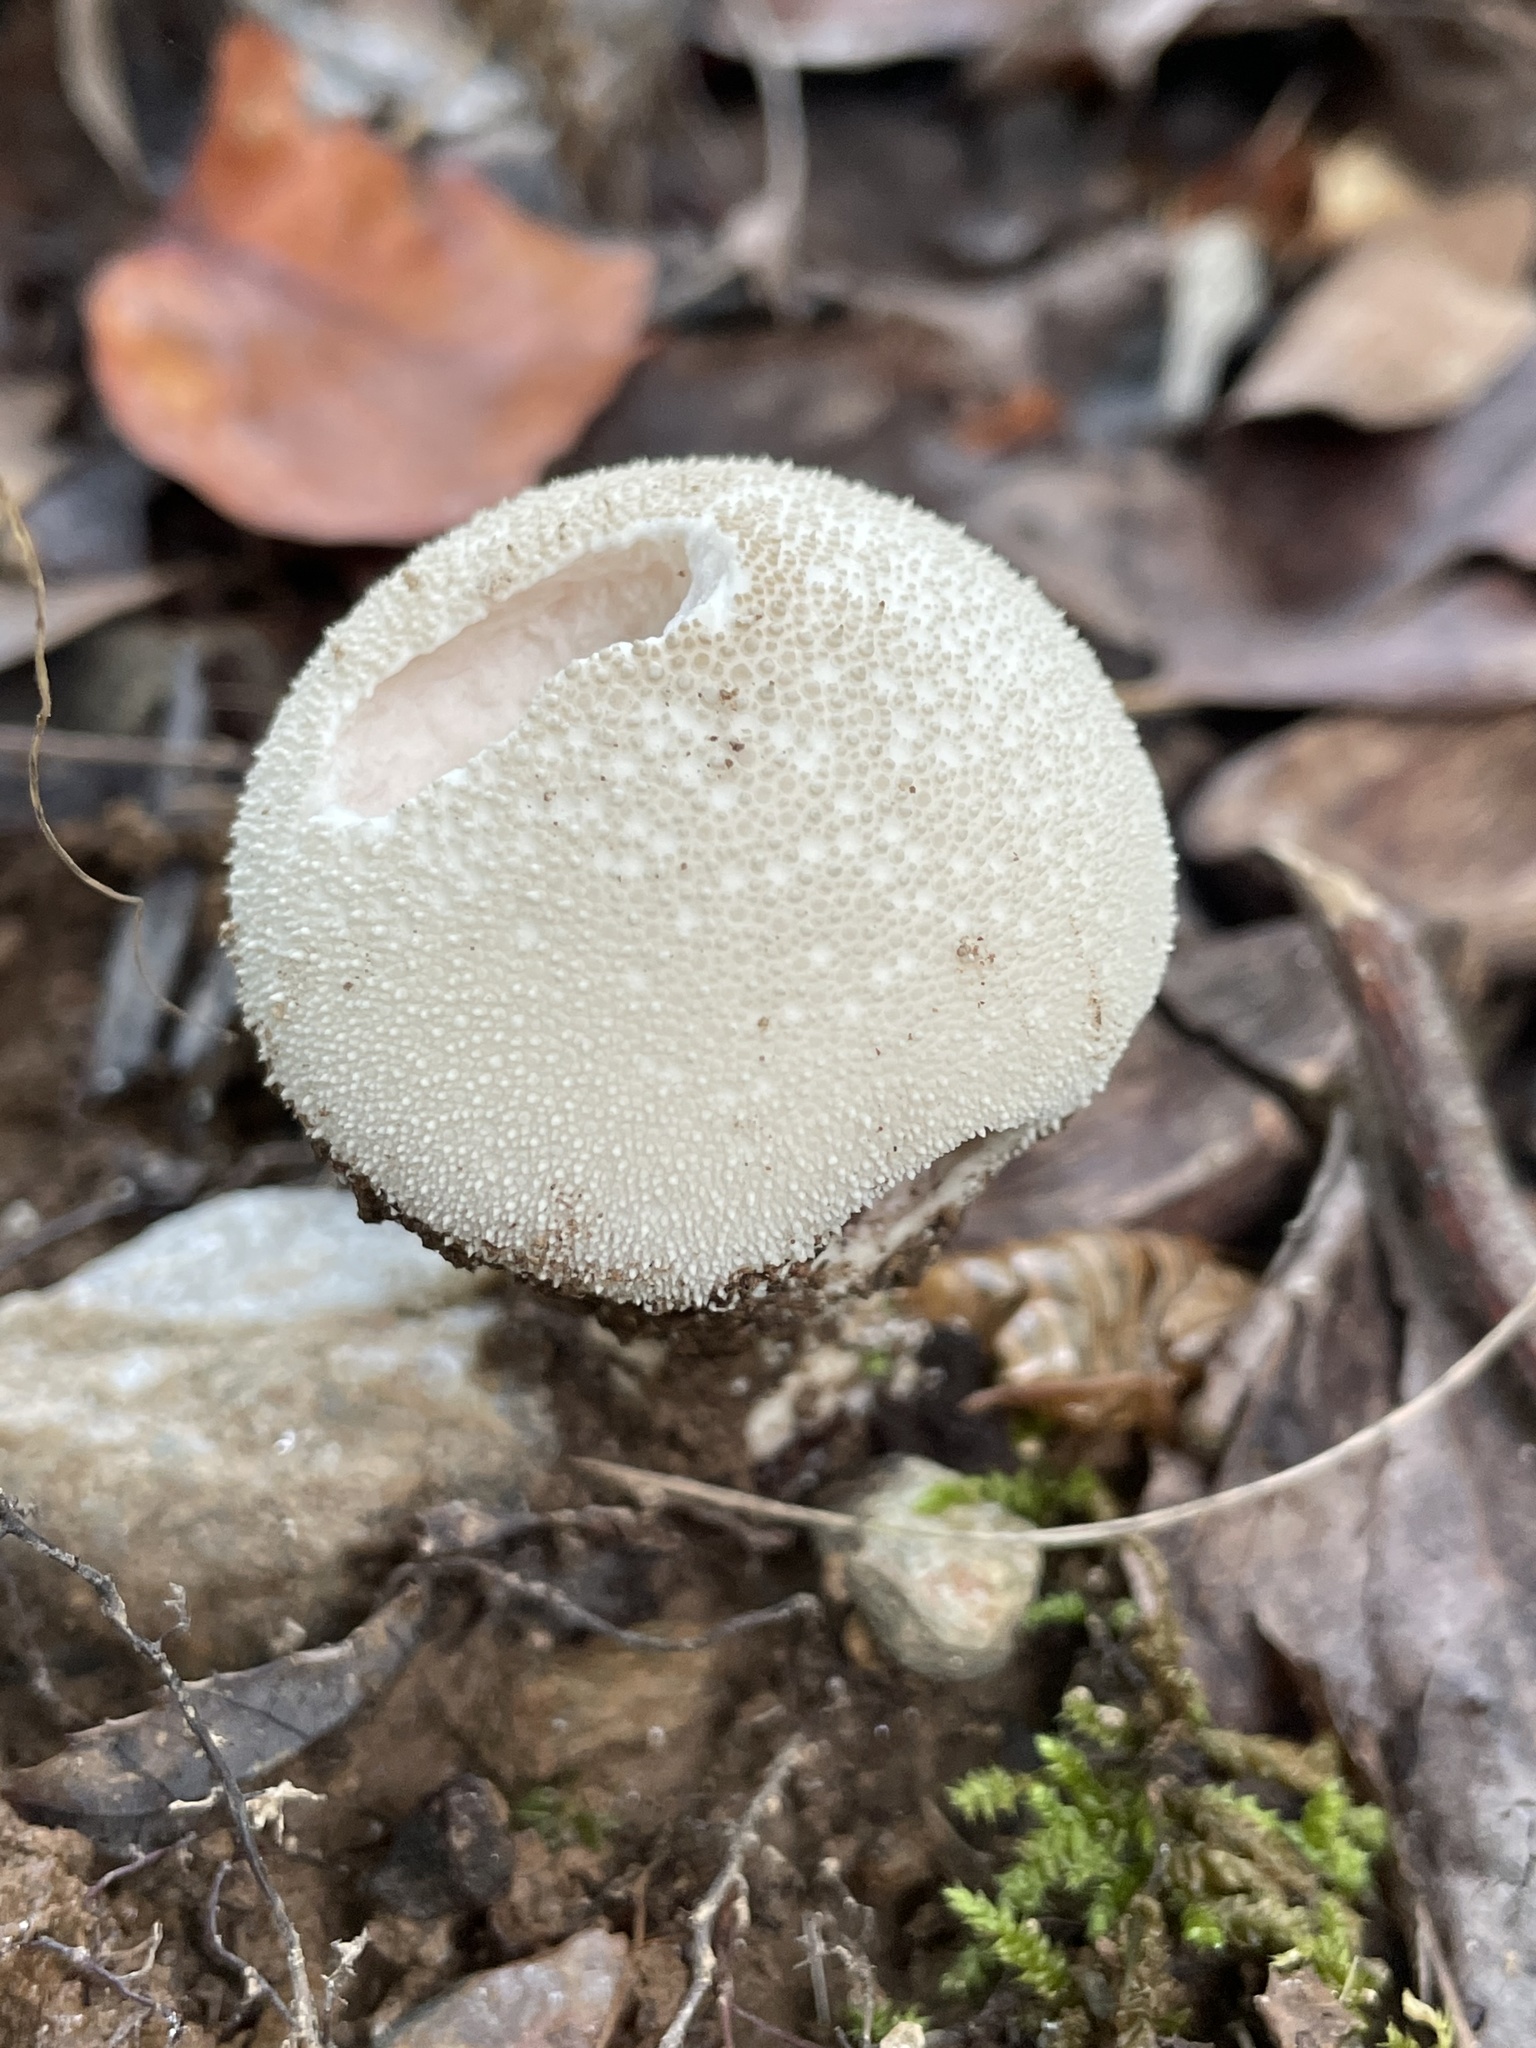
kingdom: Fungi
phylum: Basidiomycota
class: Agaricomycetes
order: Agaricales
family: Lycoperdaceae
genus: Lycoperdon
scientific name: Lycoperdon perlatum
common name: Common puffball
